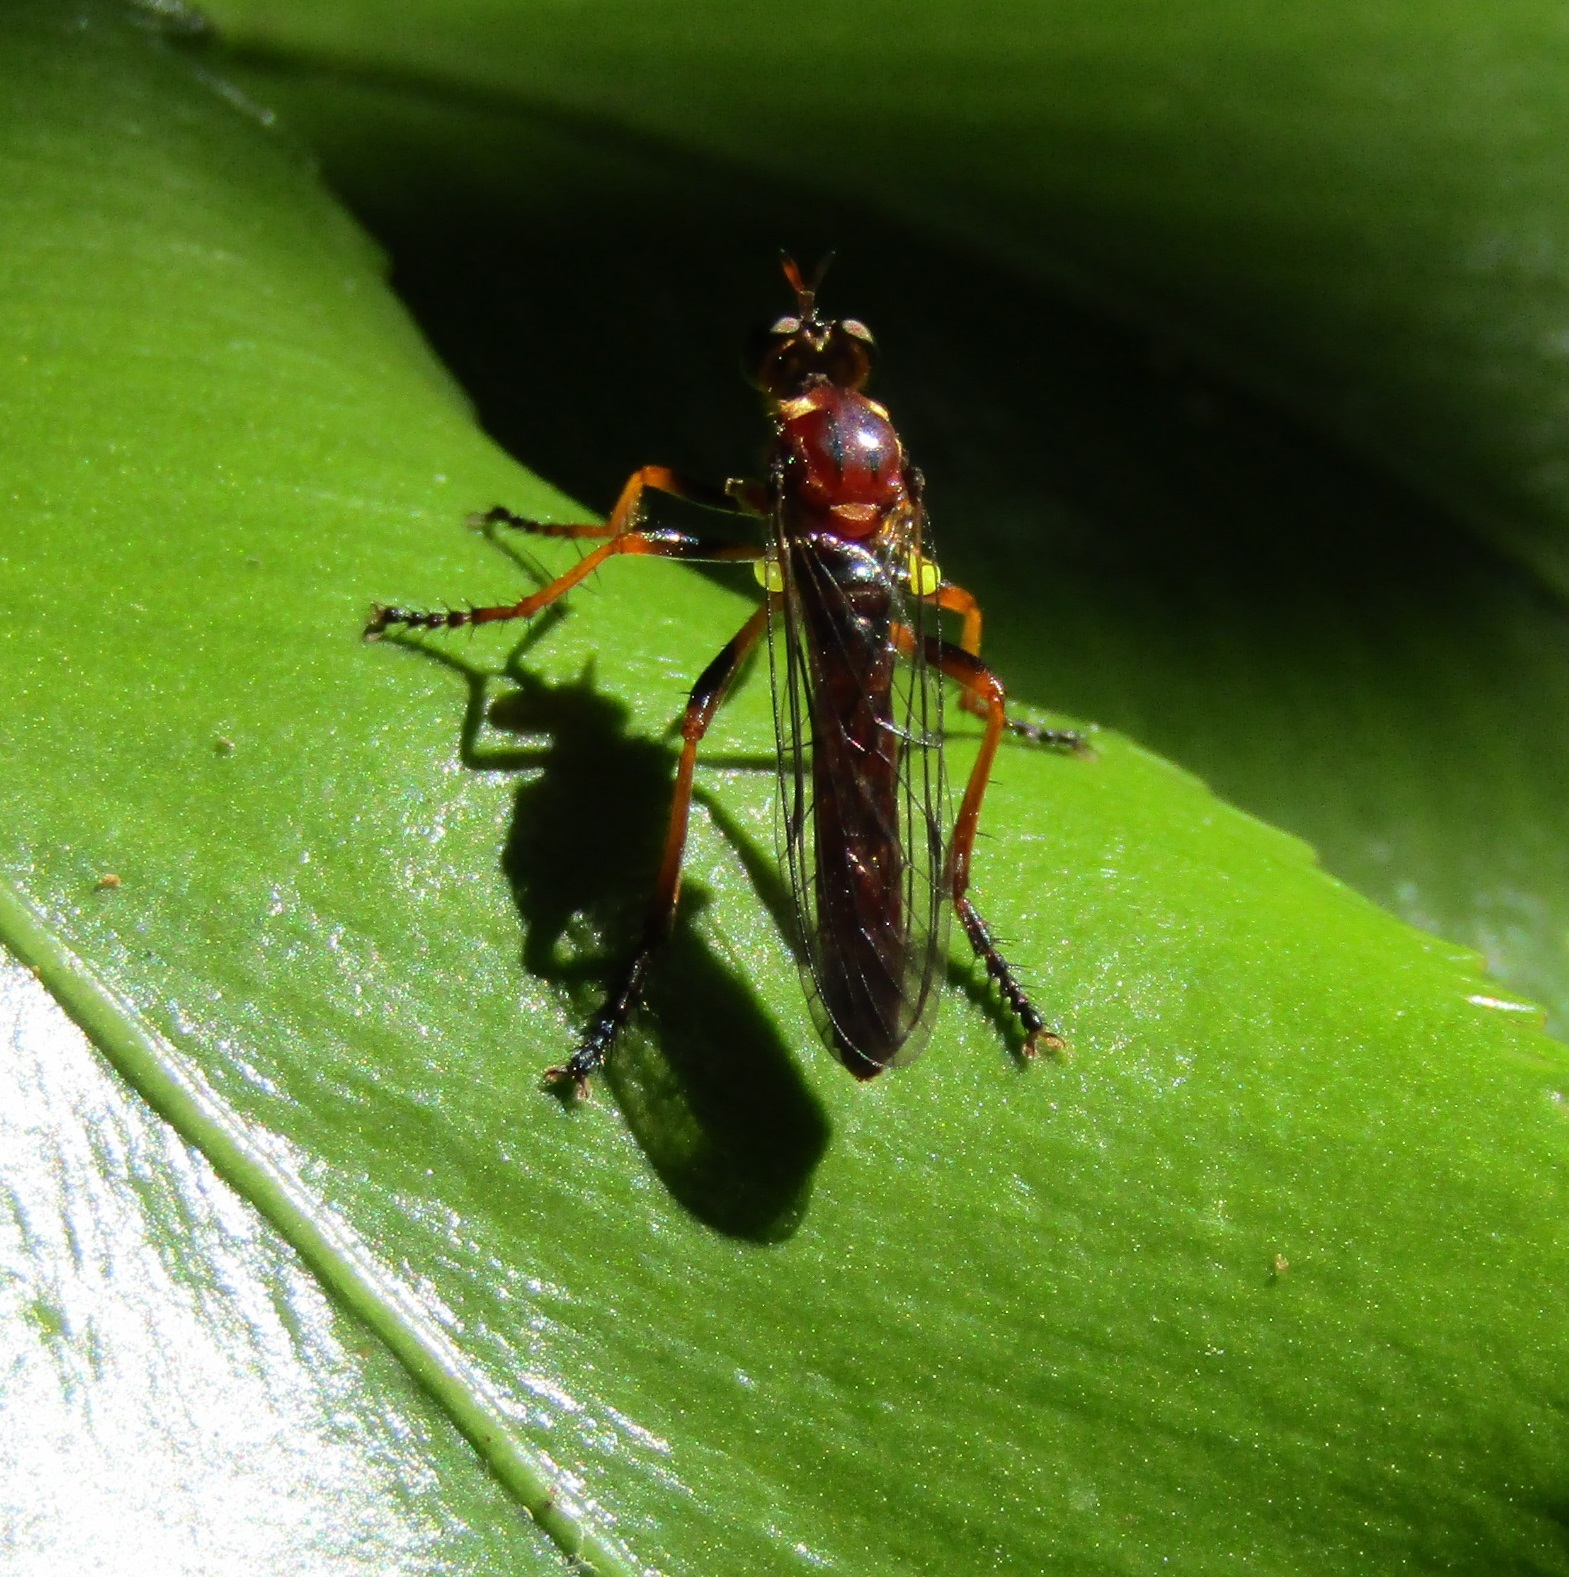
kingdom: Animalia
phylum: Arthropoda
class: Insecta
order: Diptera
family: Asilidae
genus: Saropogon
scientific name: Saropogon antipodus
